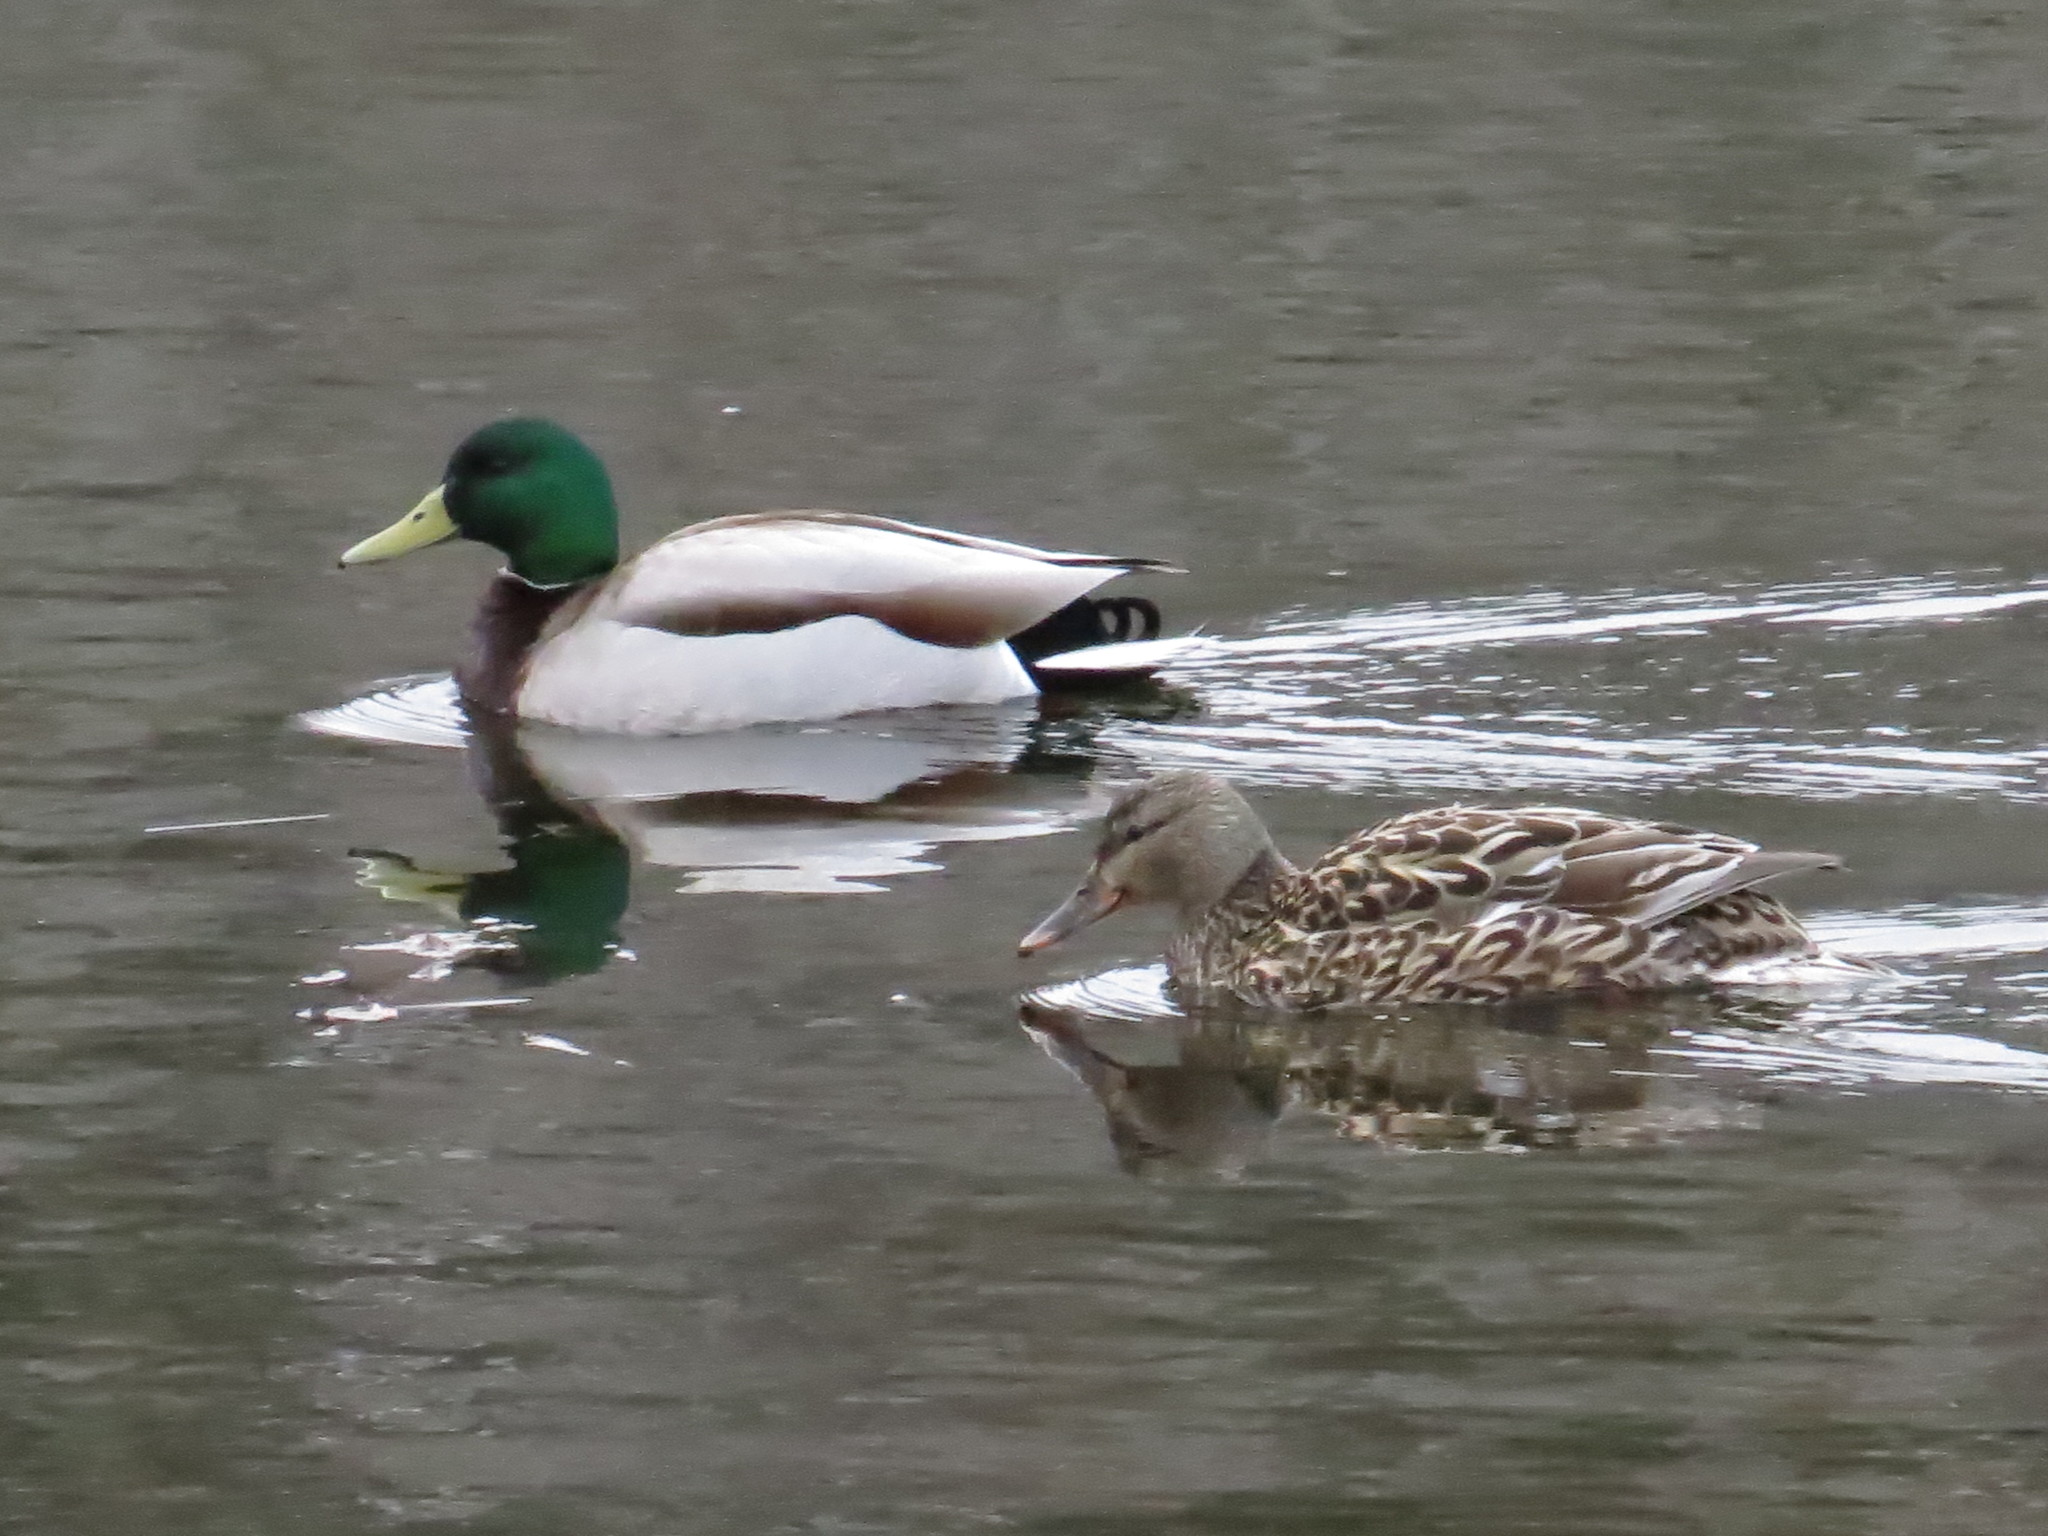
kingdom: Animalia
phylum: Chordata
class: Aves
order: Anseriformes
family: Anatidae
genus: Anas
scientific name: Anas platyrhynchos
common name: Mallard
